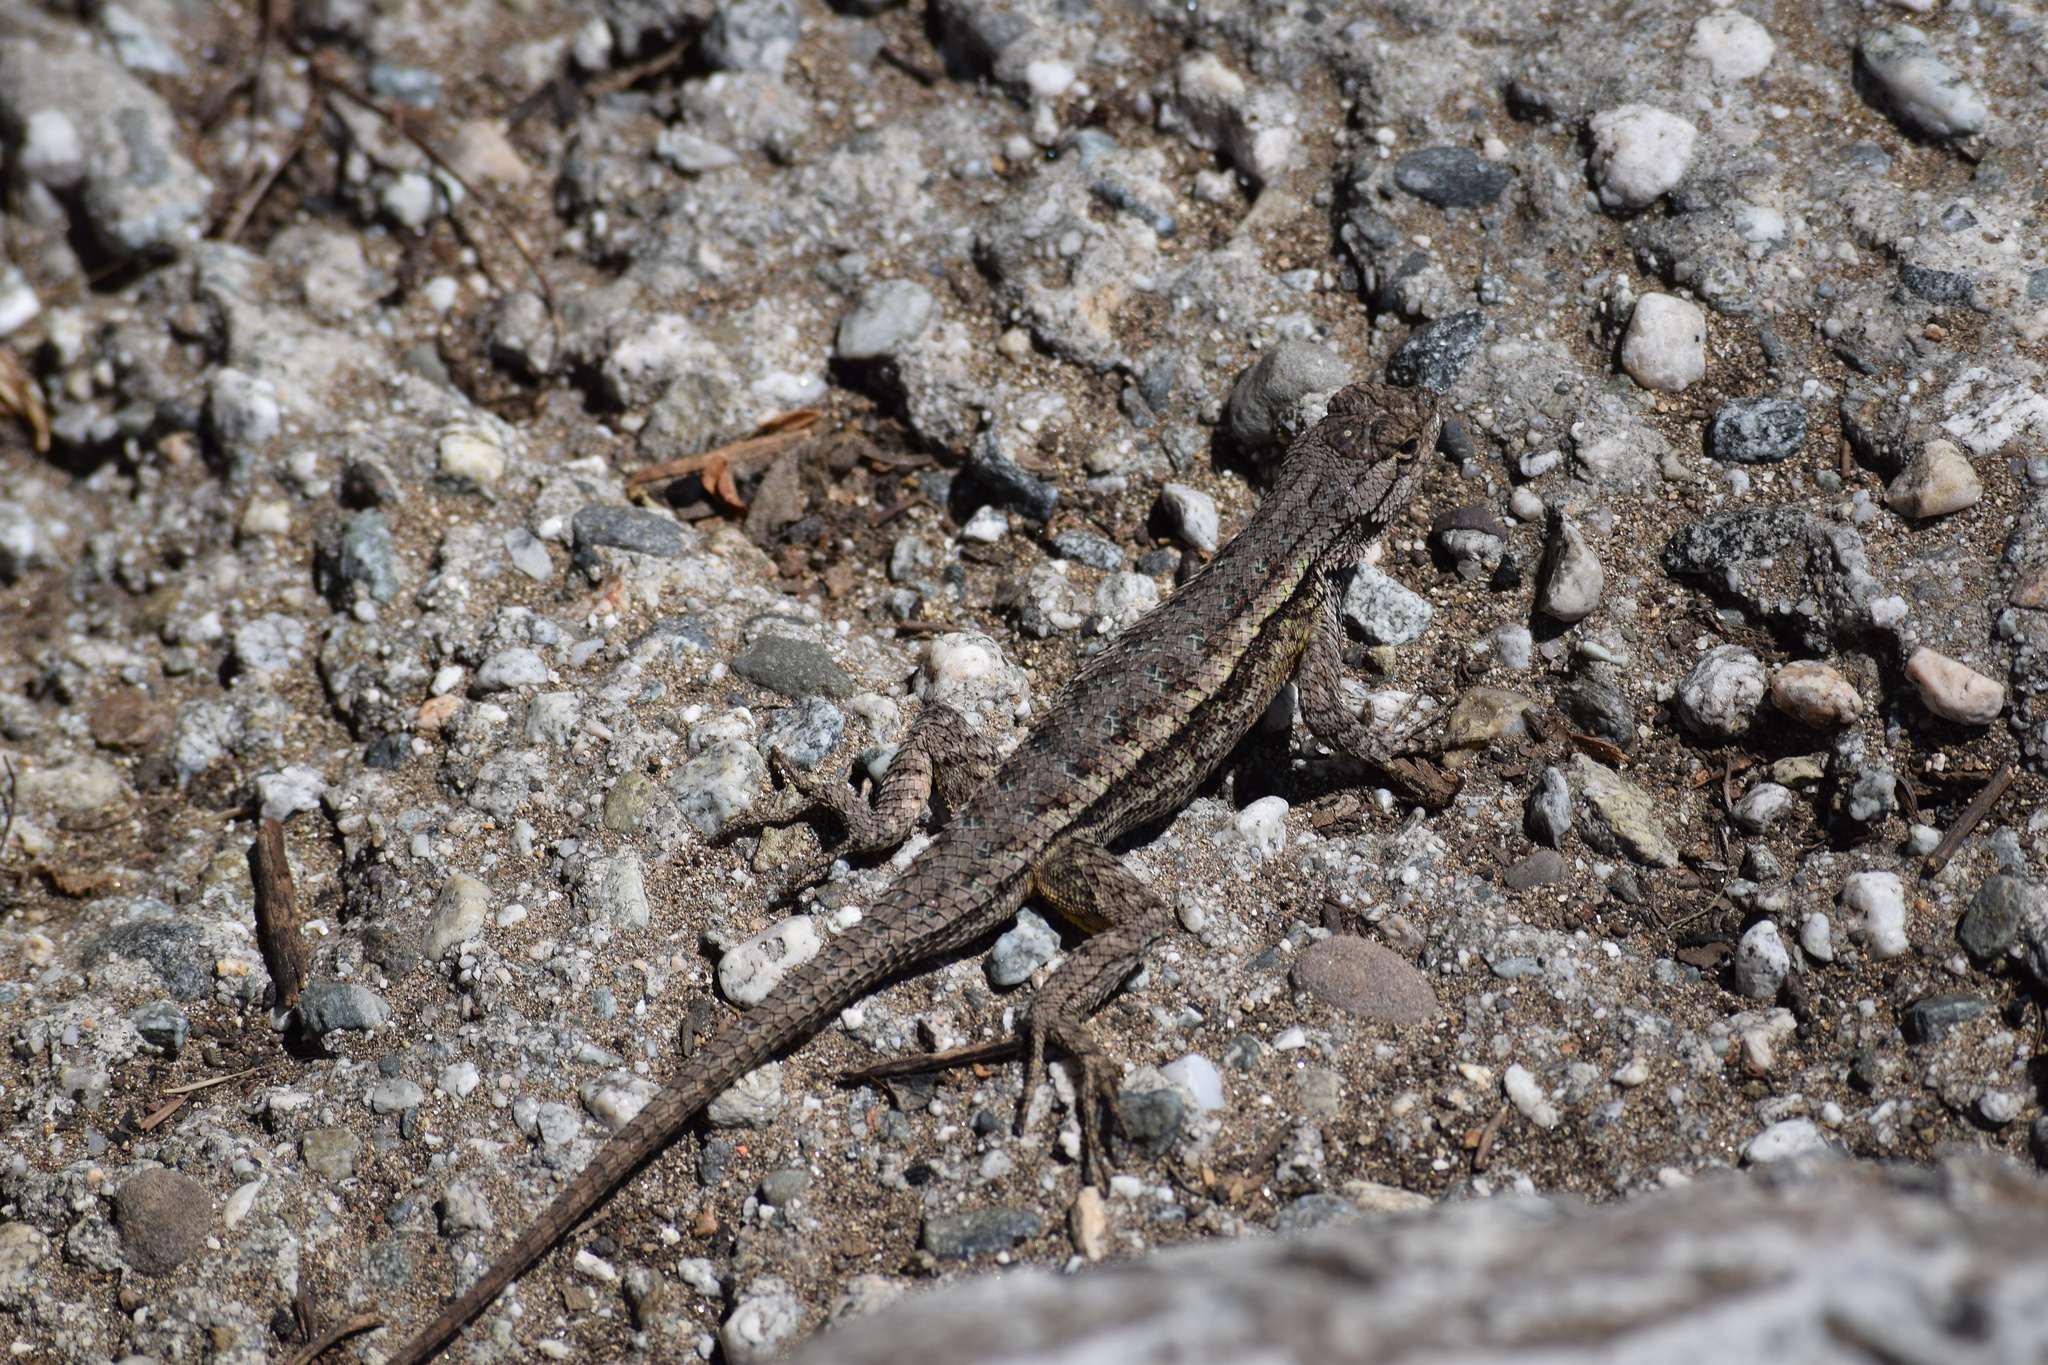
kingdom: Animalia
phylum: Chordata
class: Squamata
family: Phrynosomatidae
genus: Sceloporus
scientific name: Sceloporus occidentalis
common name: Western fence lizard
